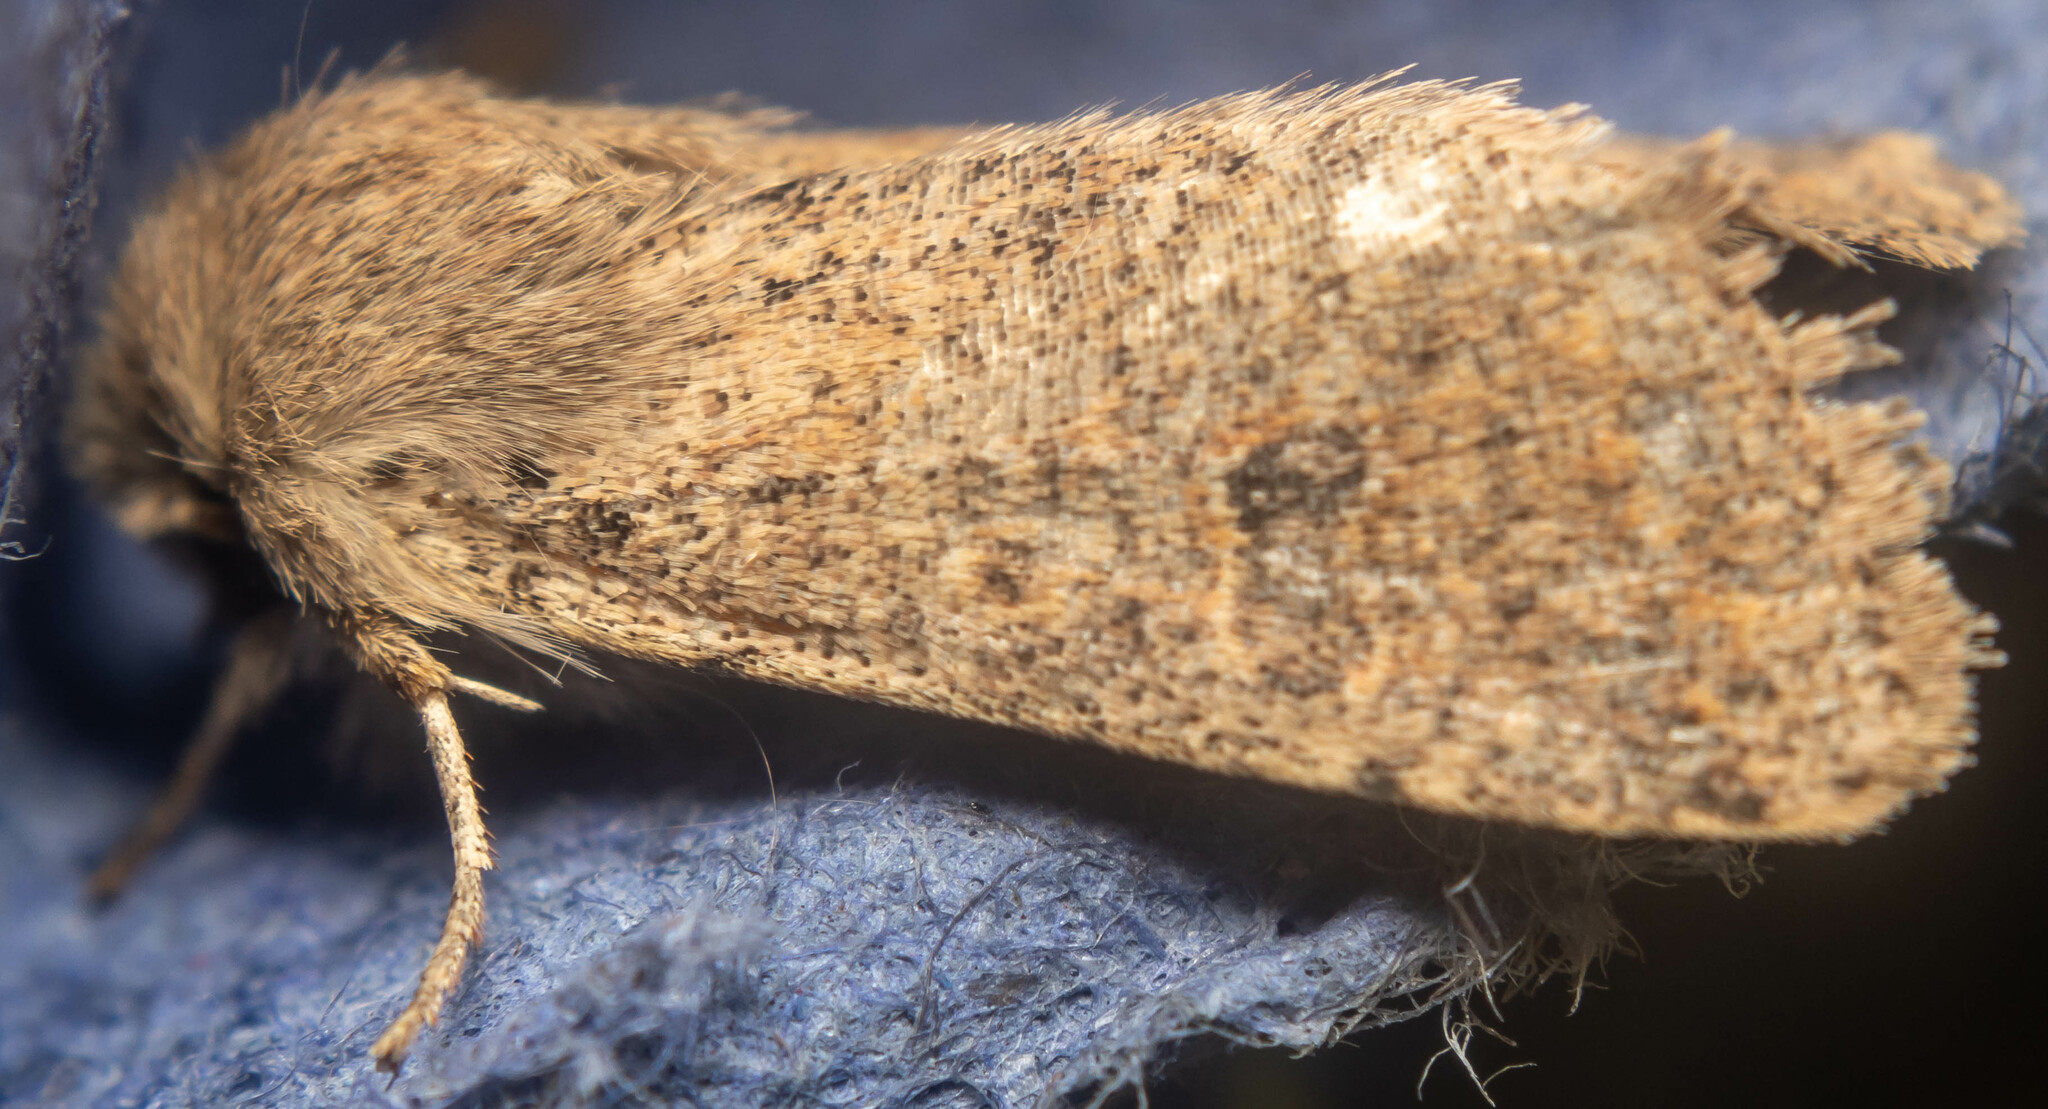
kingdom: Animalia
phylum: Arthropoda
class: Insecta
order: Lepidoptera
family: Noctuidae
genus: Orthosia
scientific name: Orthosia cruda
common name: Small quaker
